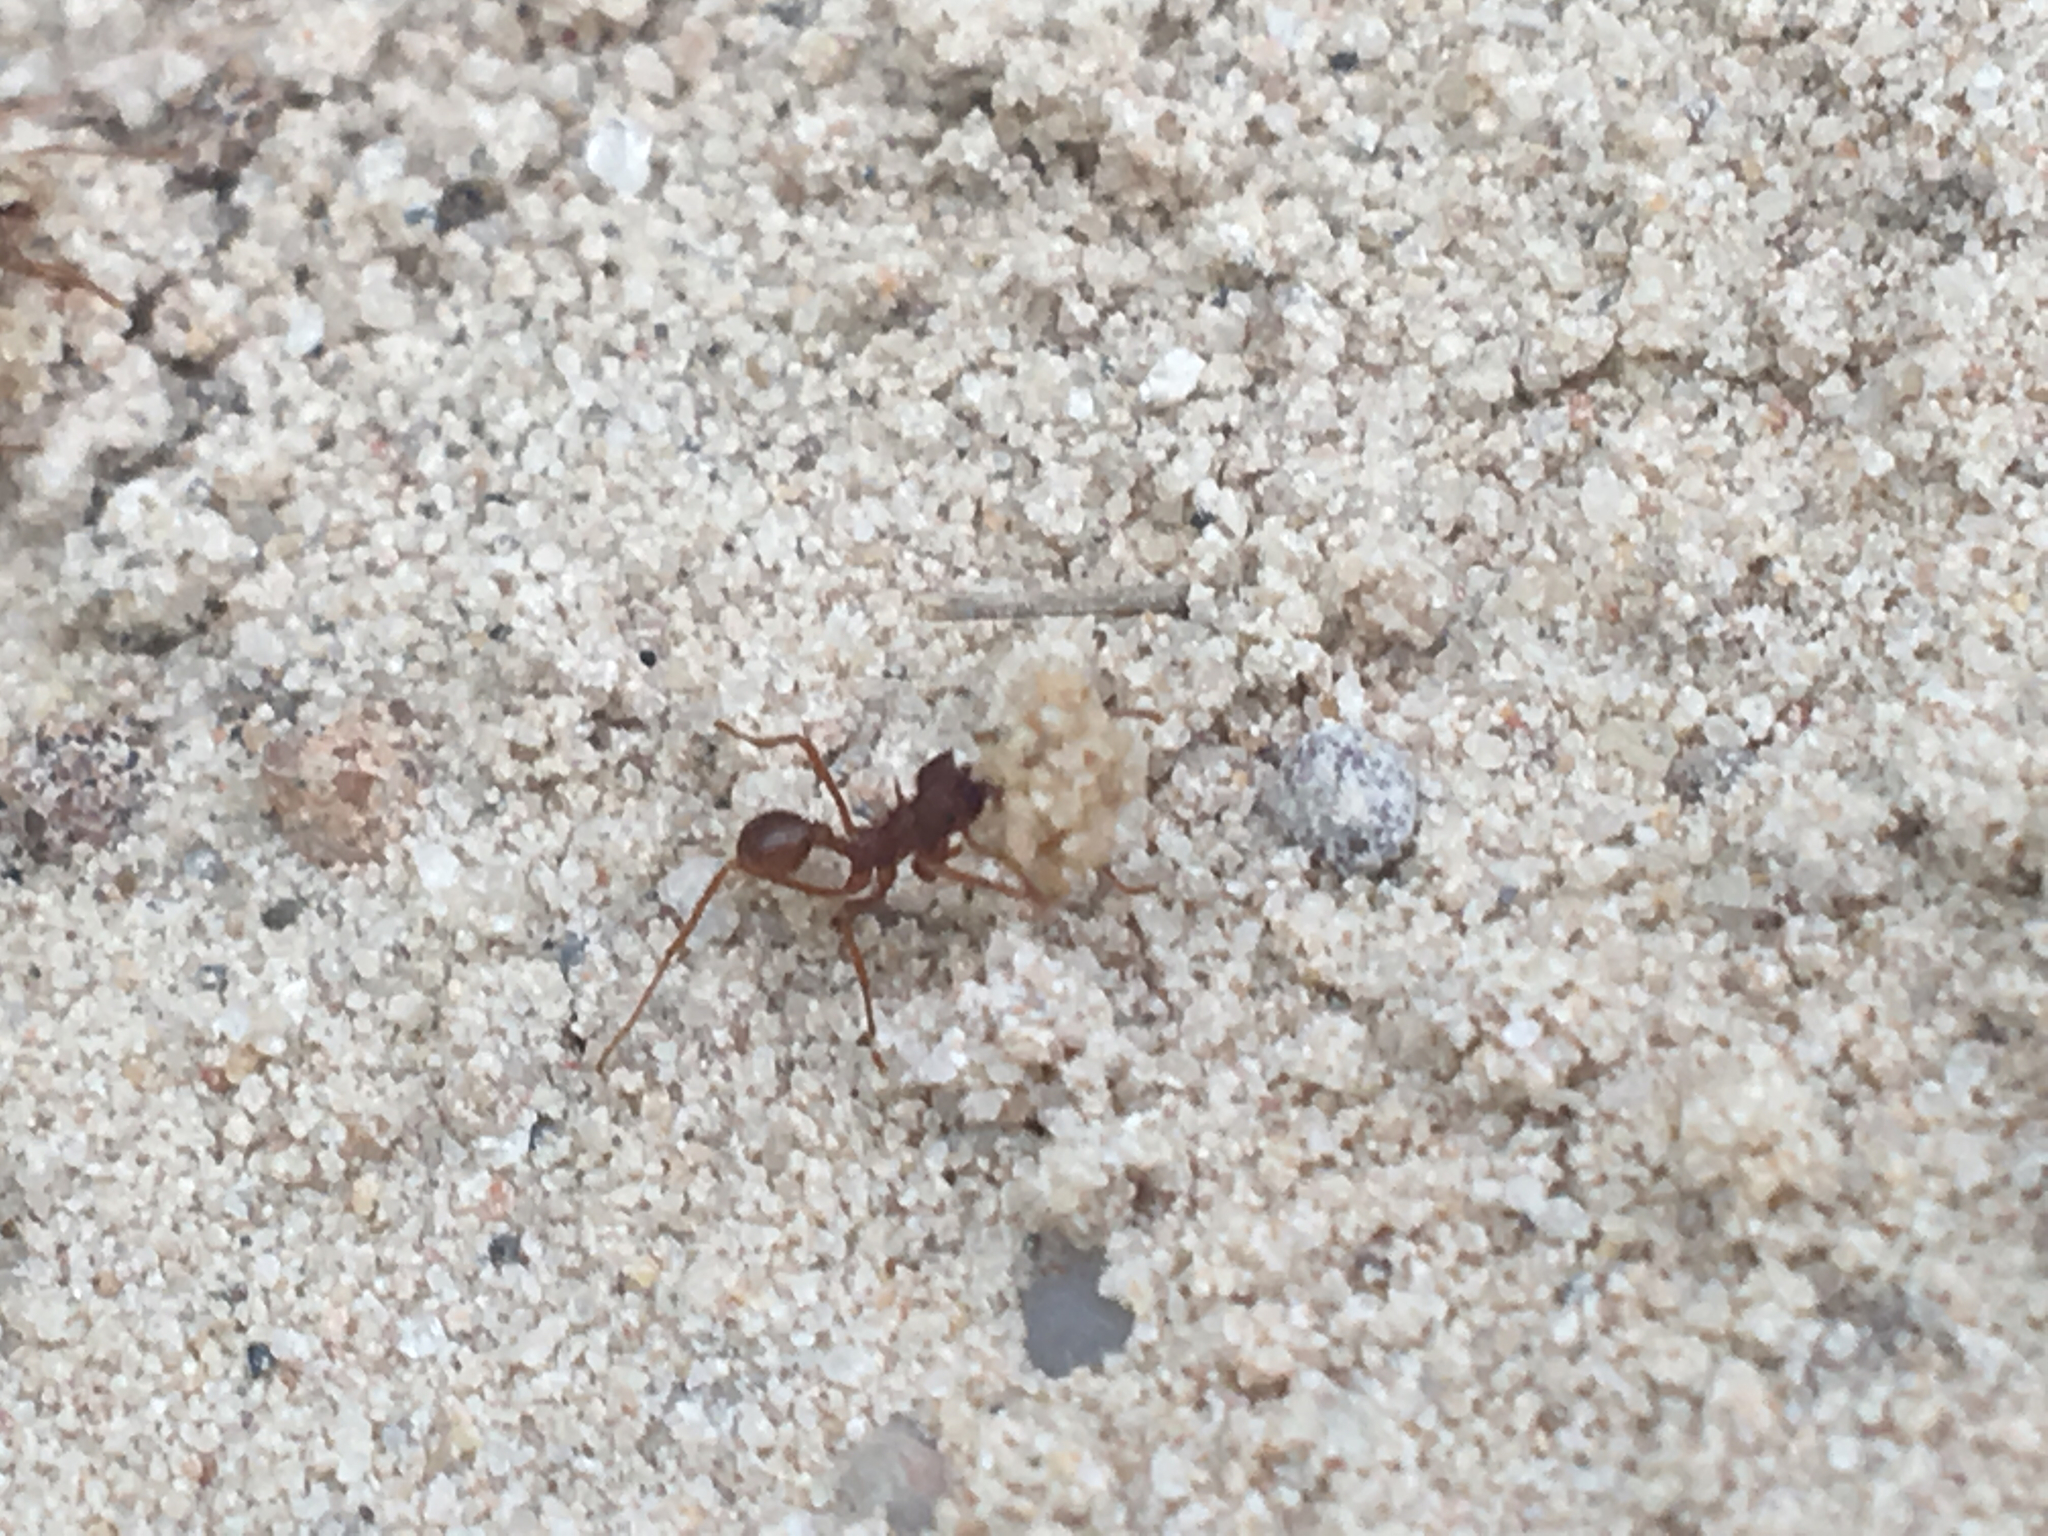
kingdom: Animalia
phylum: Arthropoda
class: Insecta
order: Hymenoptera
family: Formicidae
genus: Atta
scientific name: Atta texana
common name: Texas leafcutting ant
